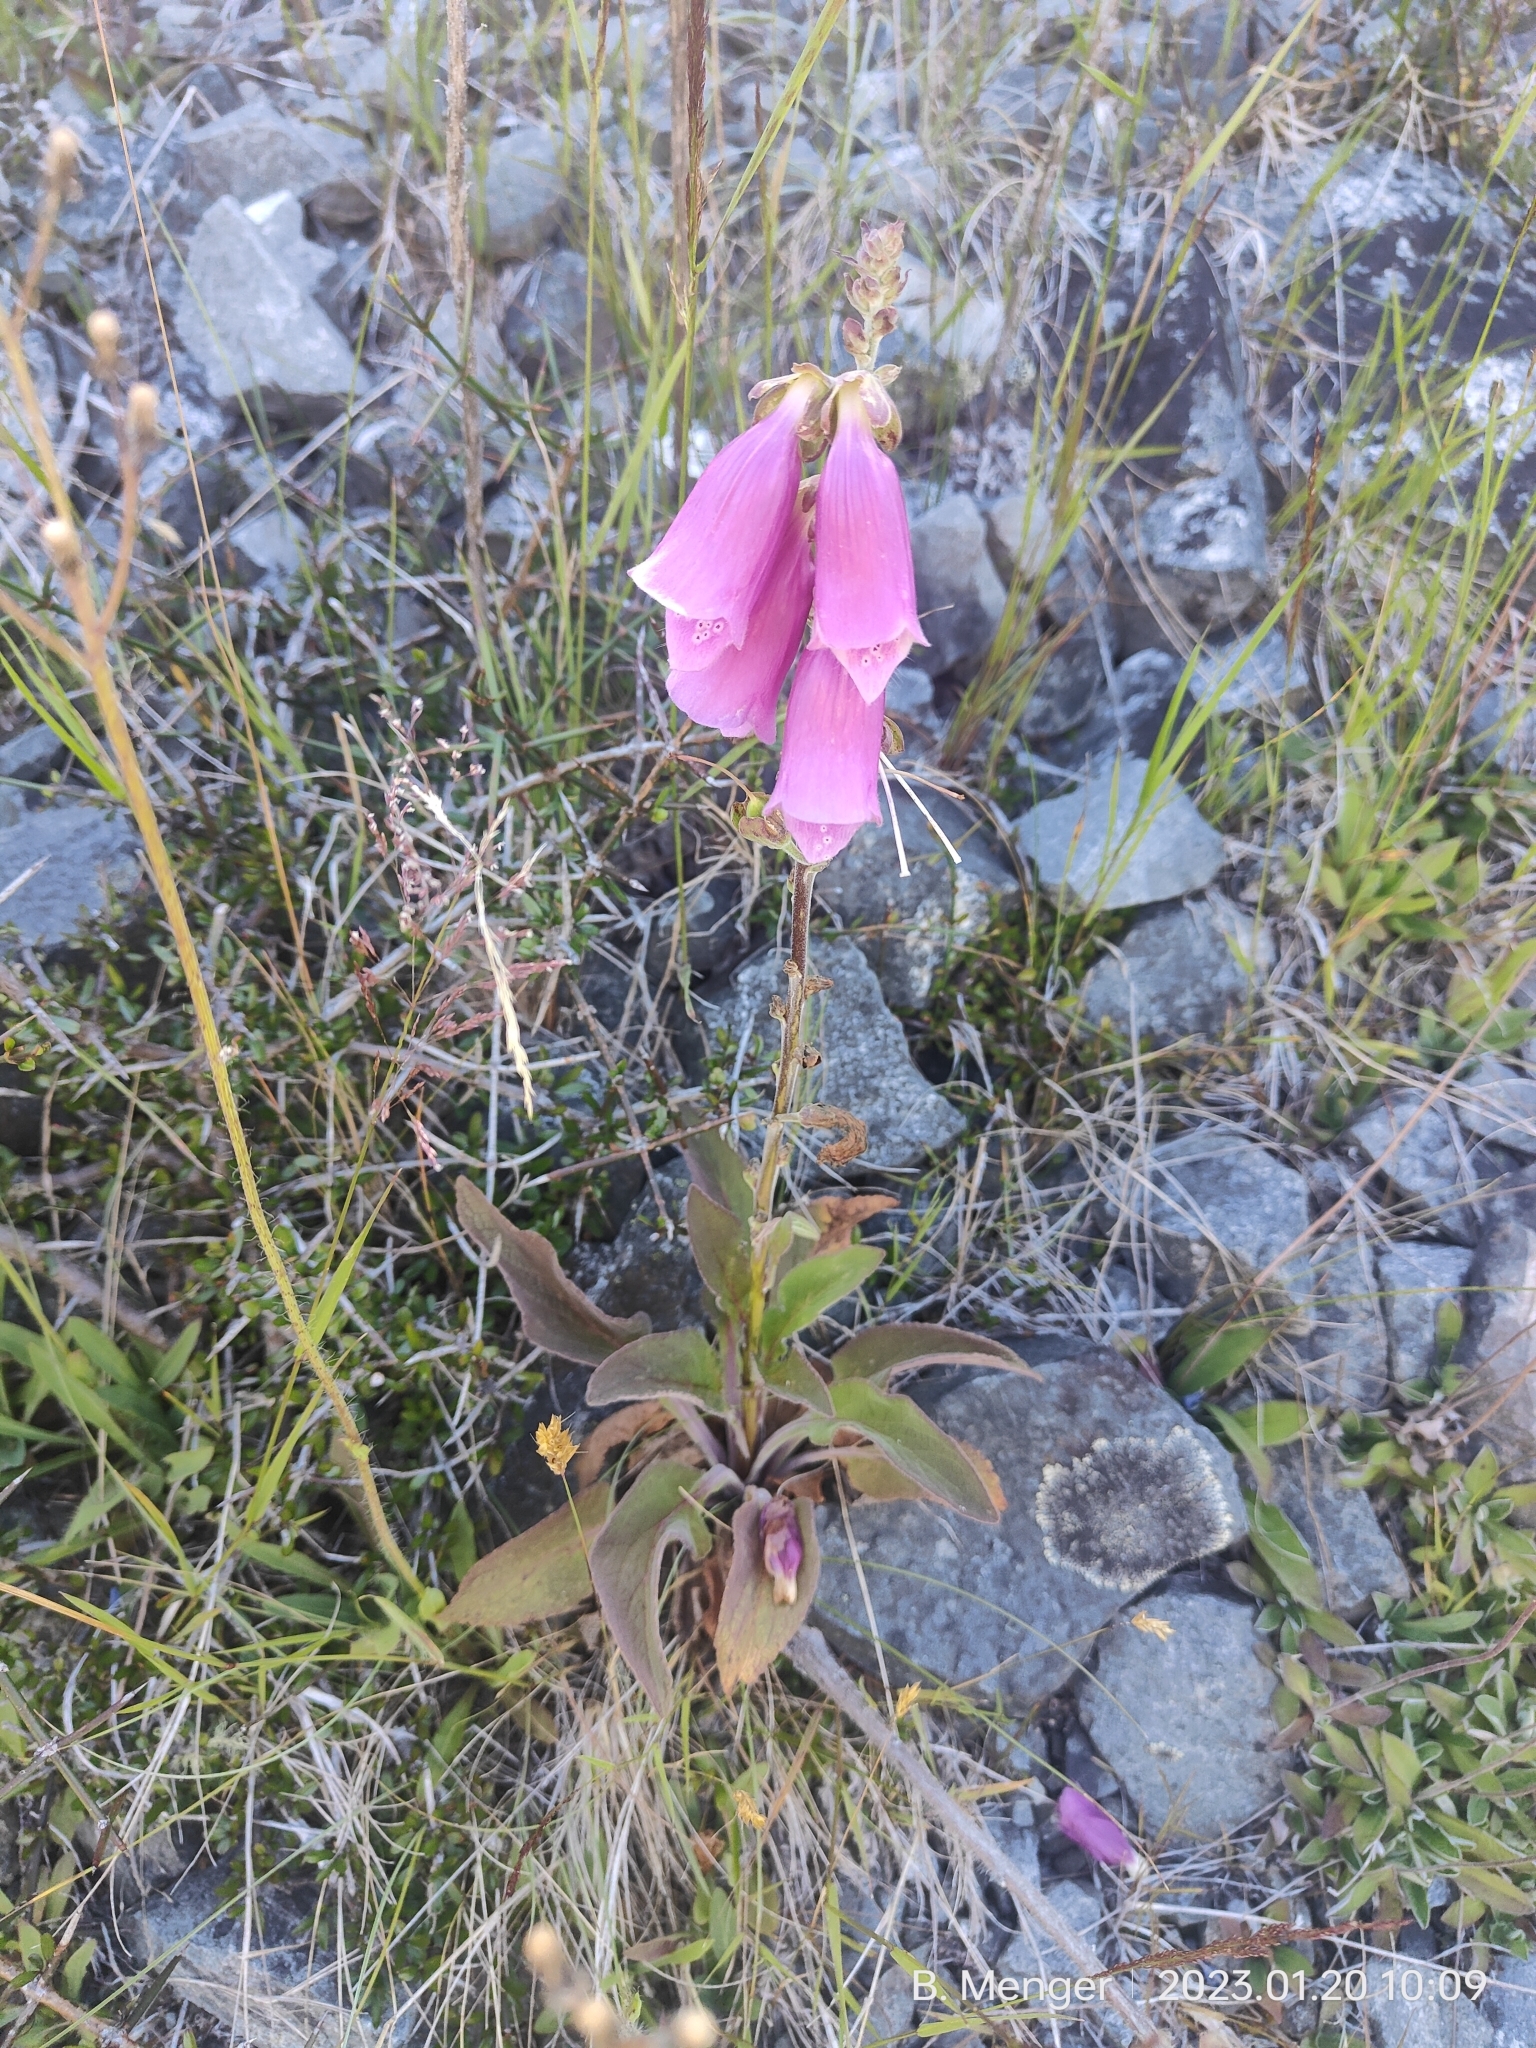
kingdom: Plantae
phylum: Tracheophyta
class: Magnoliopsida
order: Lamiales
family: Plantaginaceae
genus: Digitalis
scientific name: Digitalis purpurea
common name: Foxglove
